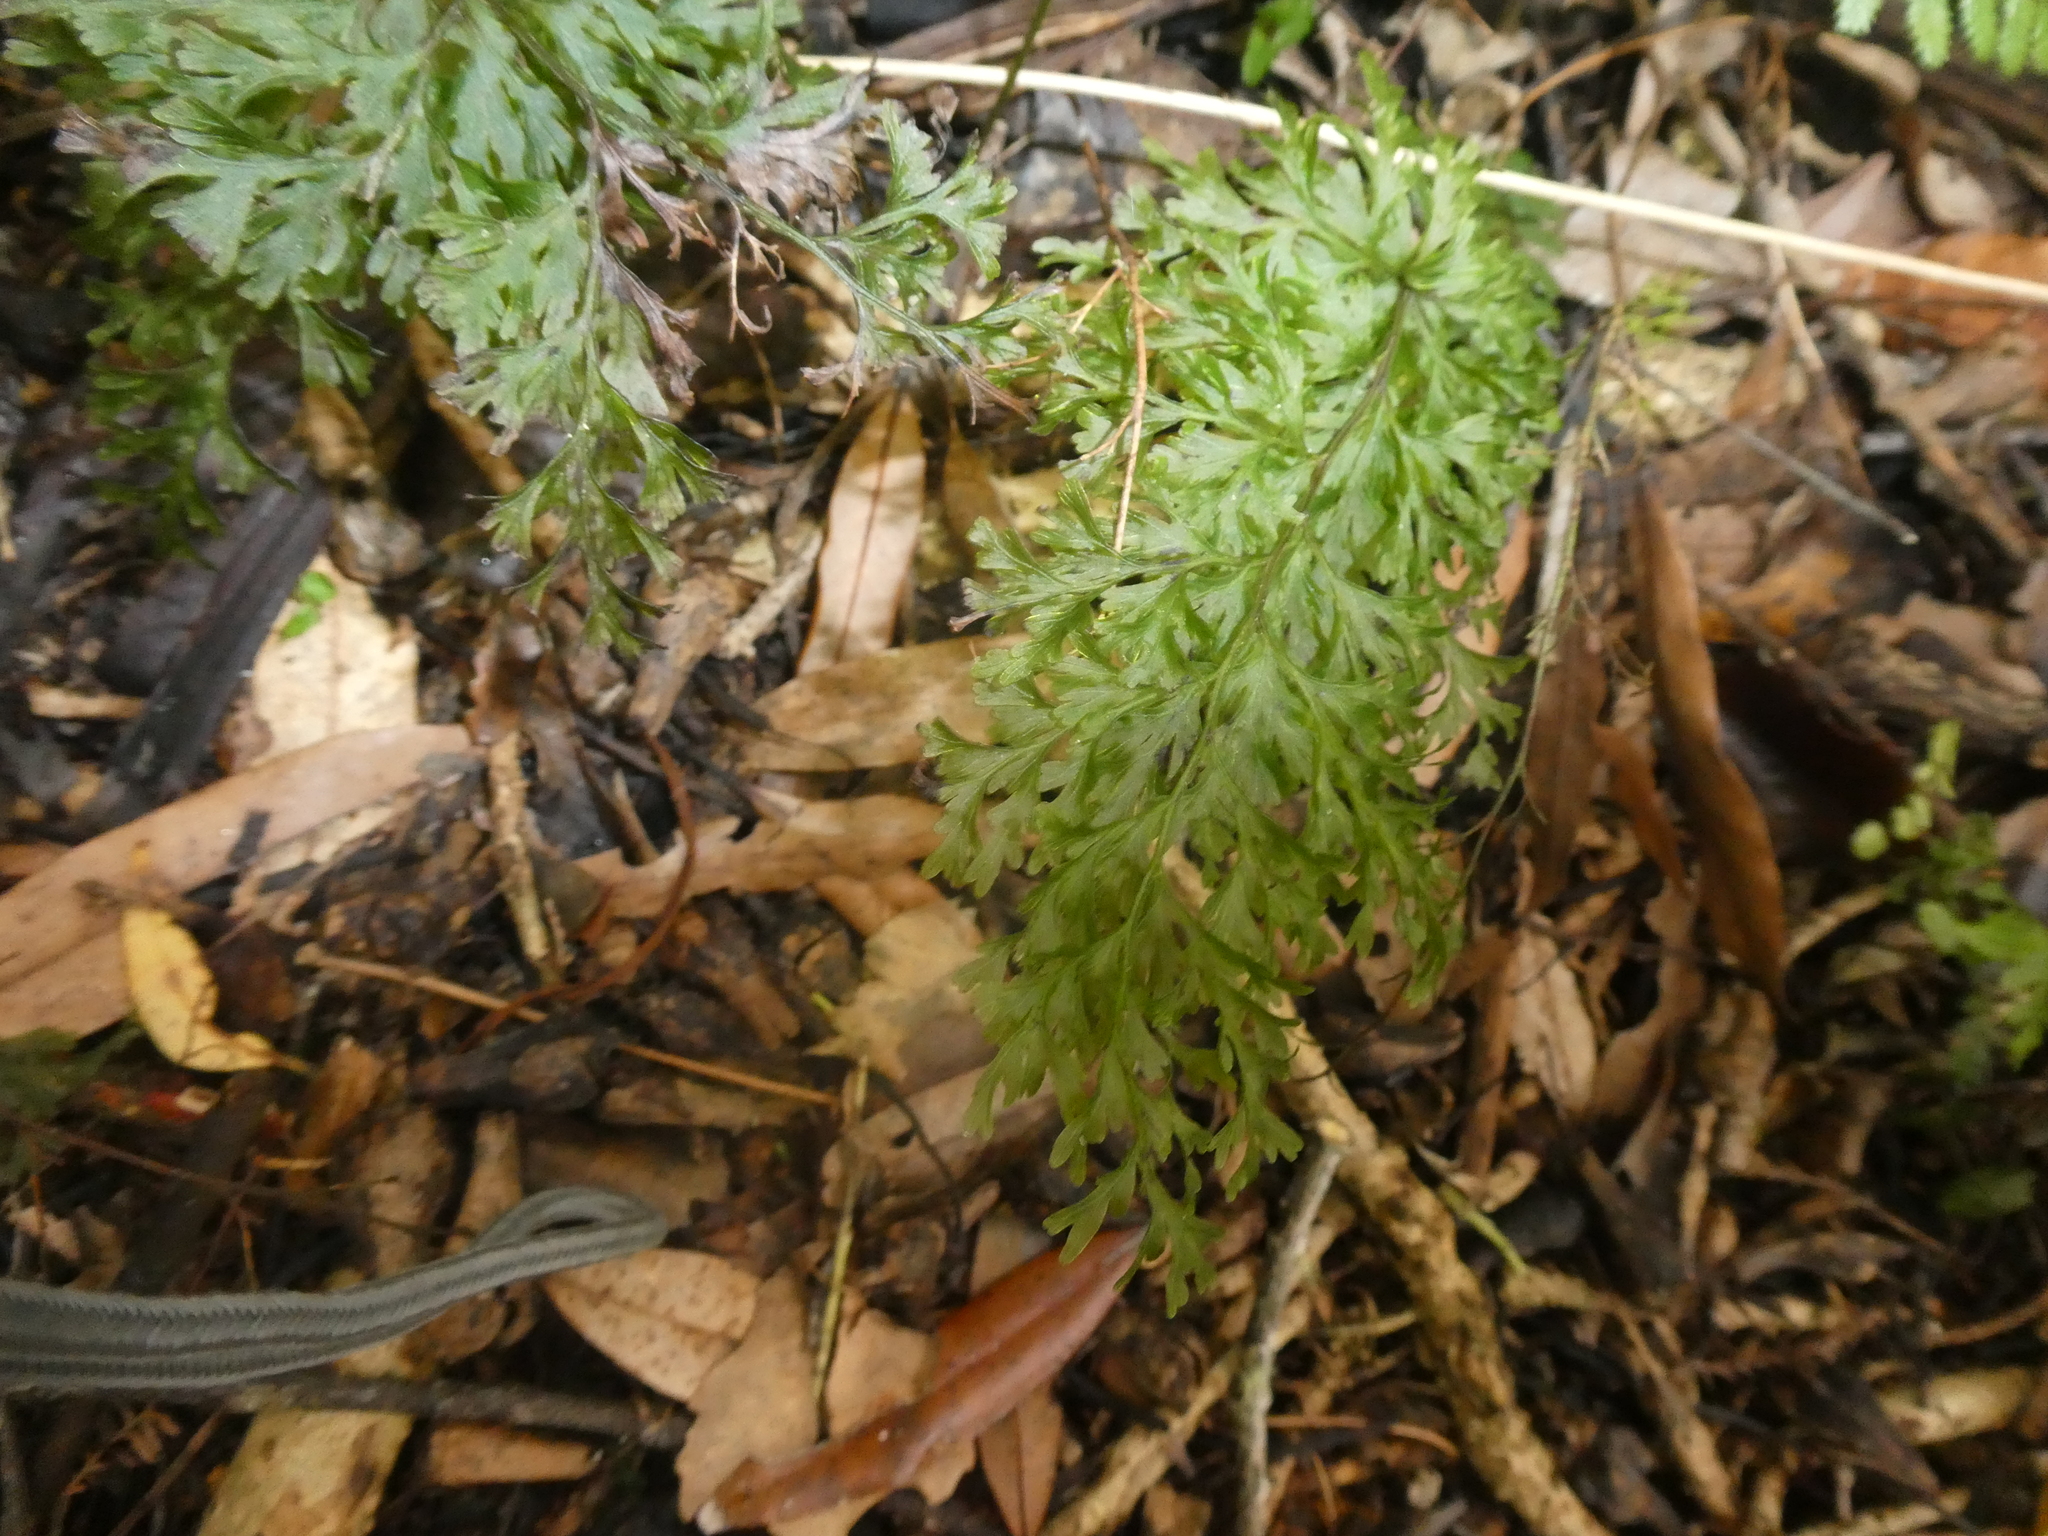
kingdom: Plantae
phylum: Tracheophyta
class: Polypodiopsida
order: Hymenophyllales
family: Hymenophyllaceae
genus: Hymenophyllum
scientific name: Hymenophyllum demissum
